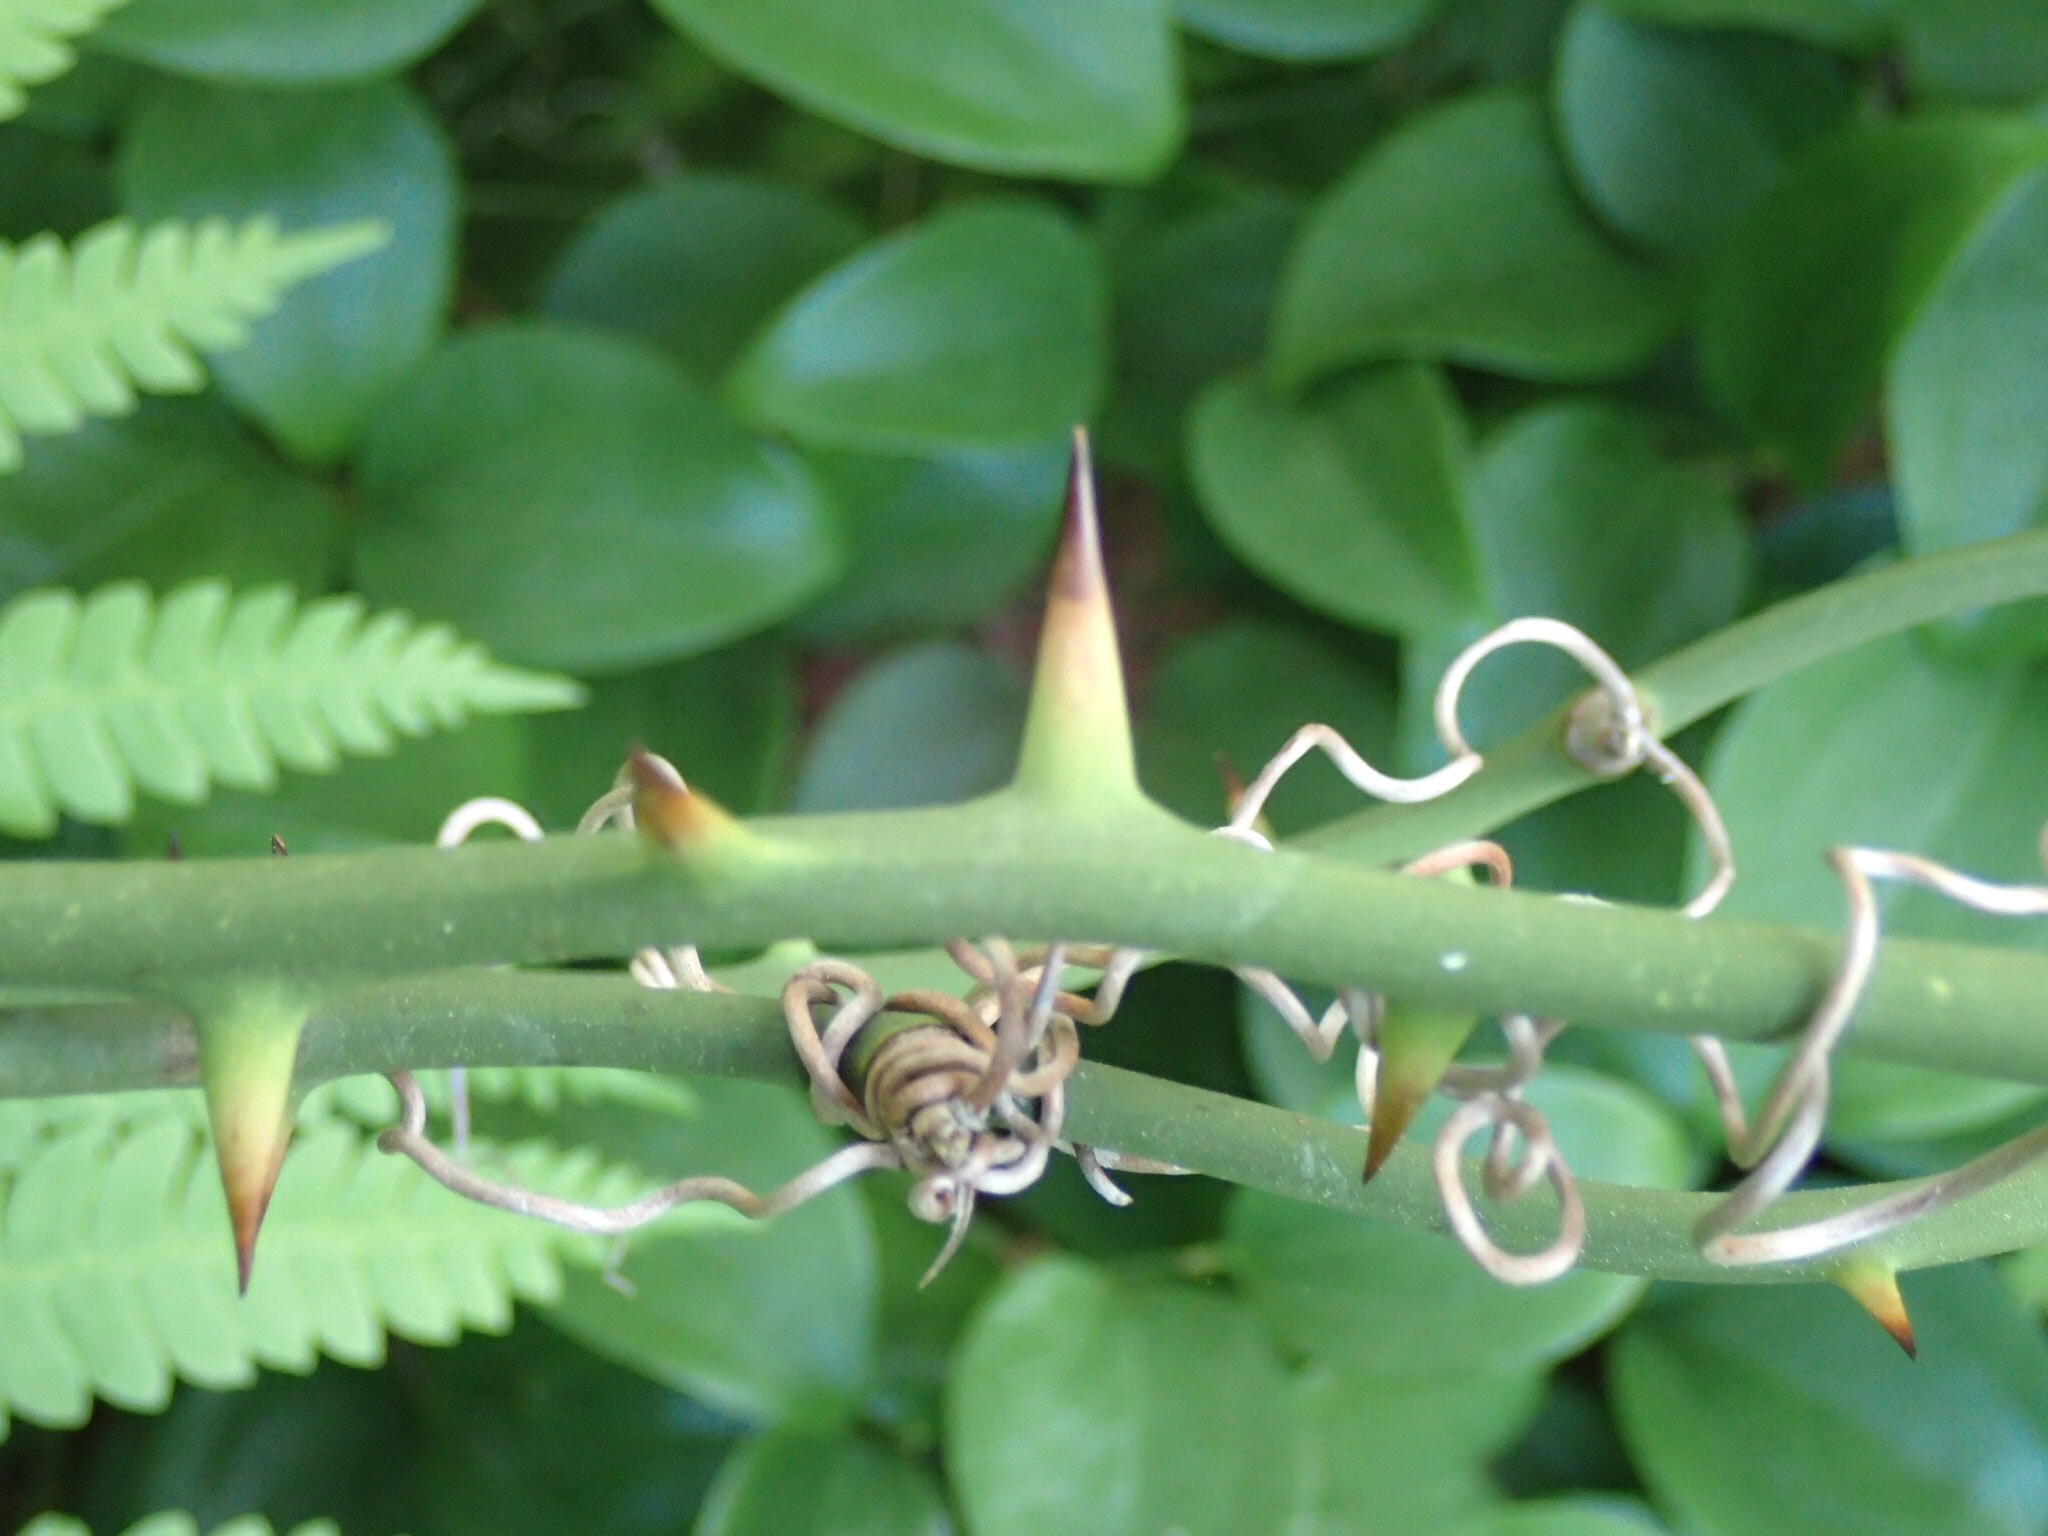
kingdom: Plantae
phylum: Tracheophyta
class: Liliopsida
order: Liliales
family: Smilacaceae
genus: Smilax
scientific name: Smilax rotundifolia
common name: Bullbriar
